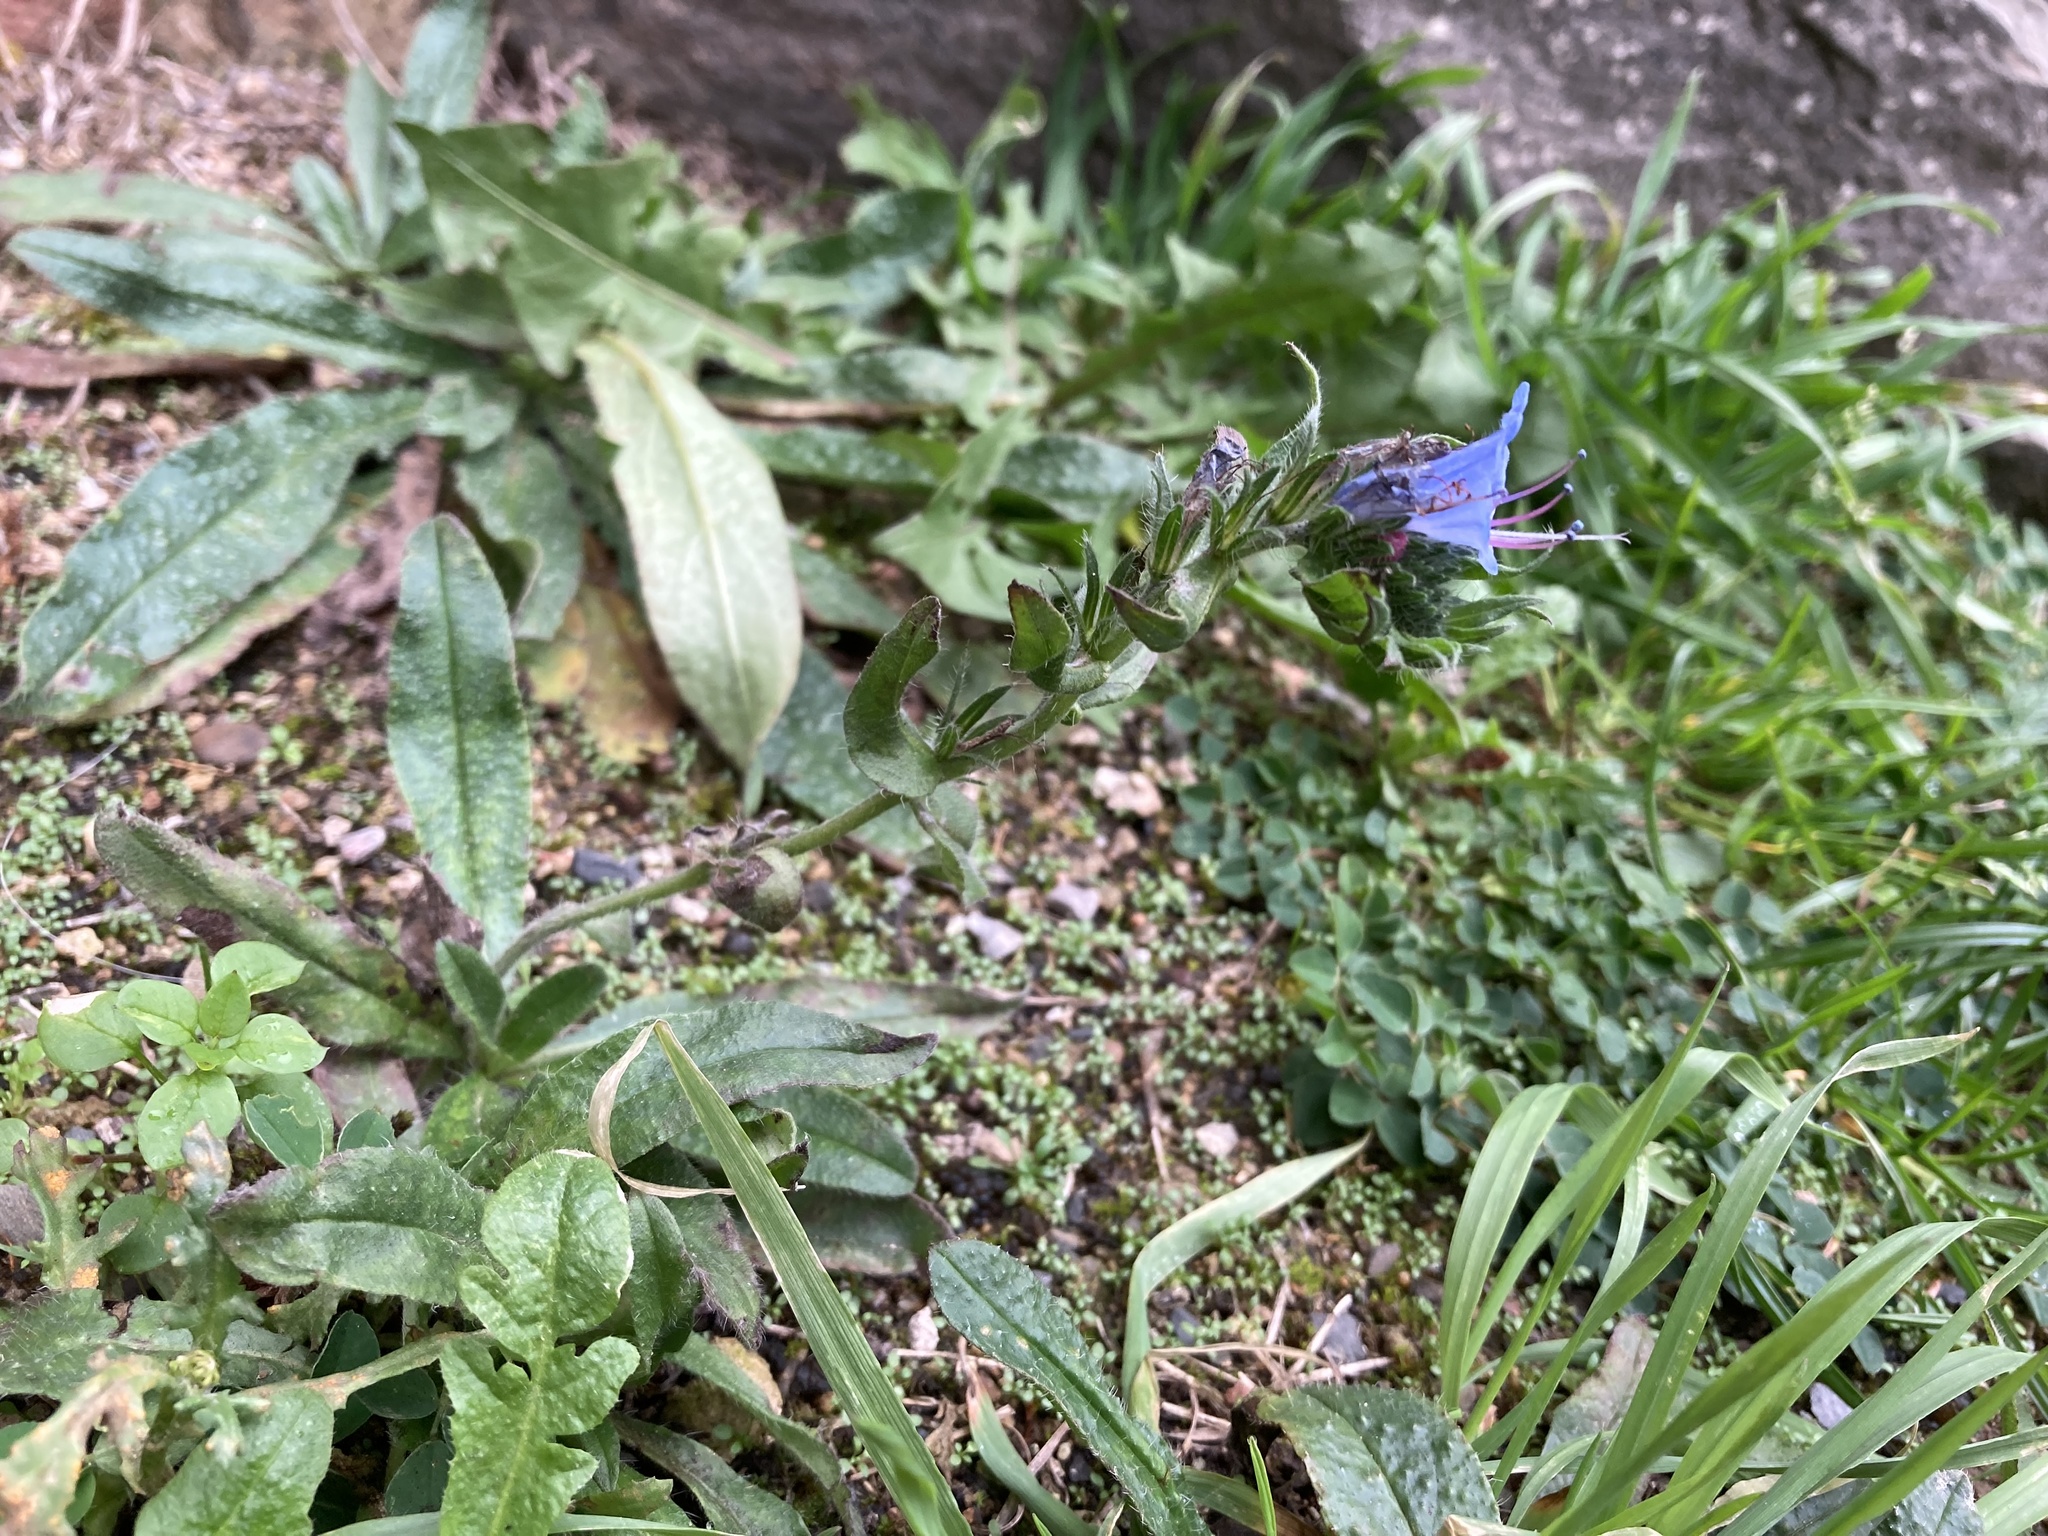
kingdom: Plantae
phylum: Tracheophyta
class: Magnoliopsida
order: Boraginales
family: Boraginaceae
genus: Echium
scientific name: Echium vulgare
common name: Common viper's bugloss
